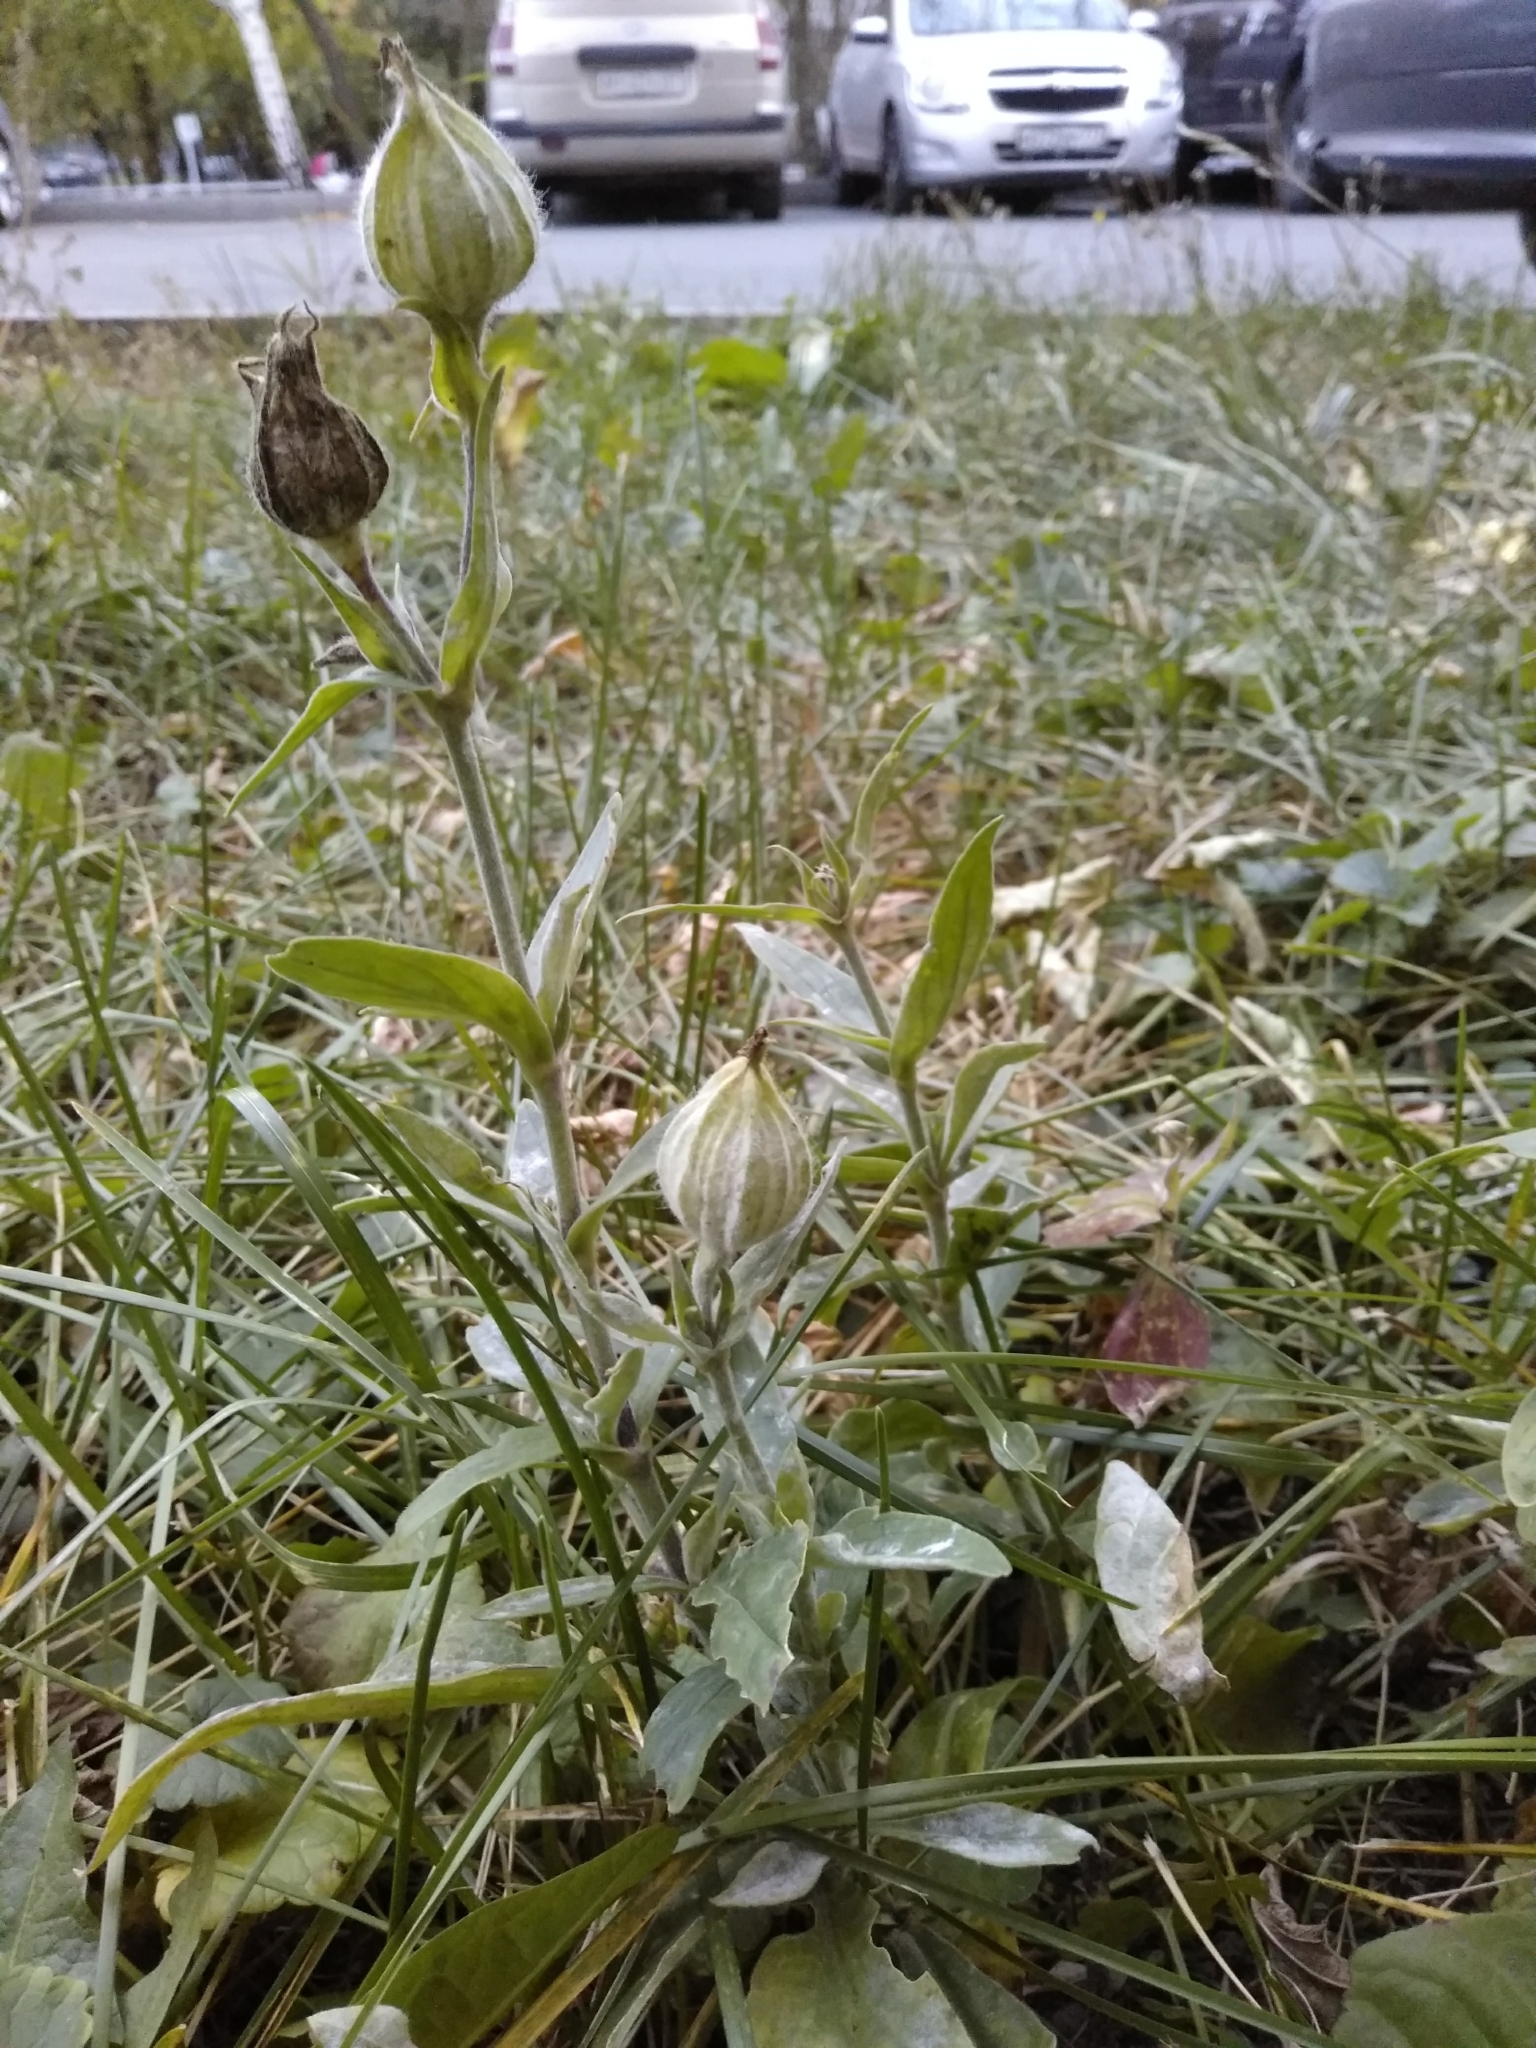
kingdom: Plantae
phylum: Tracheophyta
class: Magnoliopsida
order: Caryophyllales
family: Caryophyllaceae
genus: Silene
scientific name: Silene latifolia
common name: White campion
